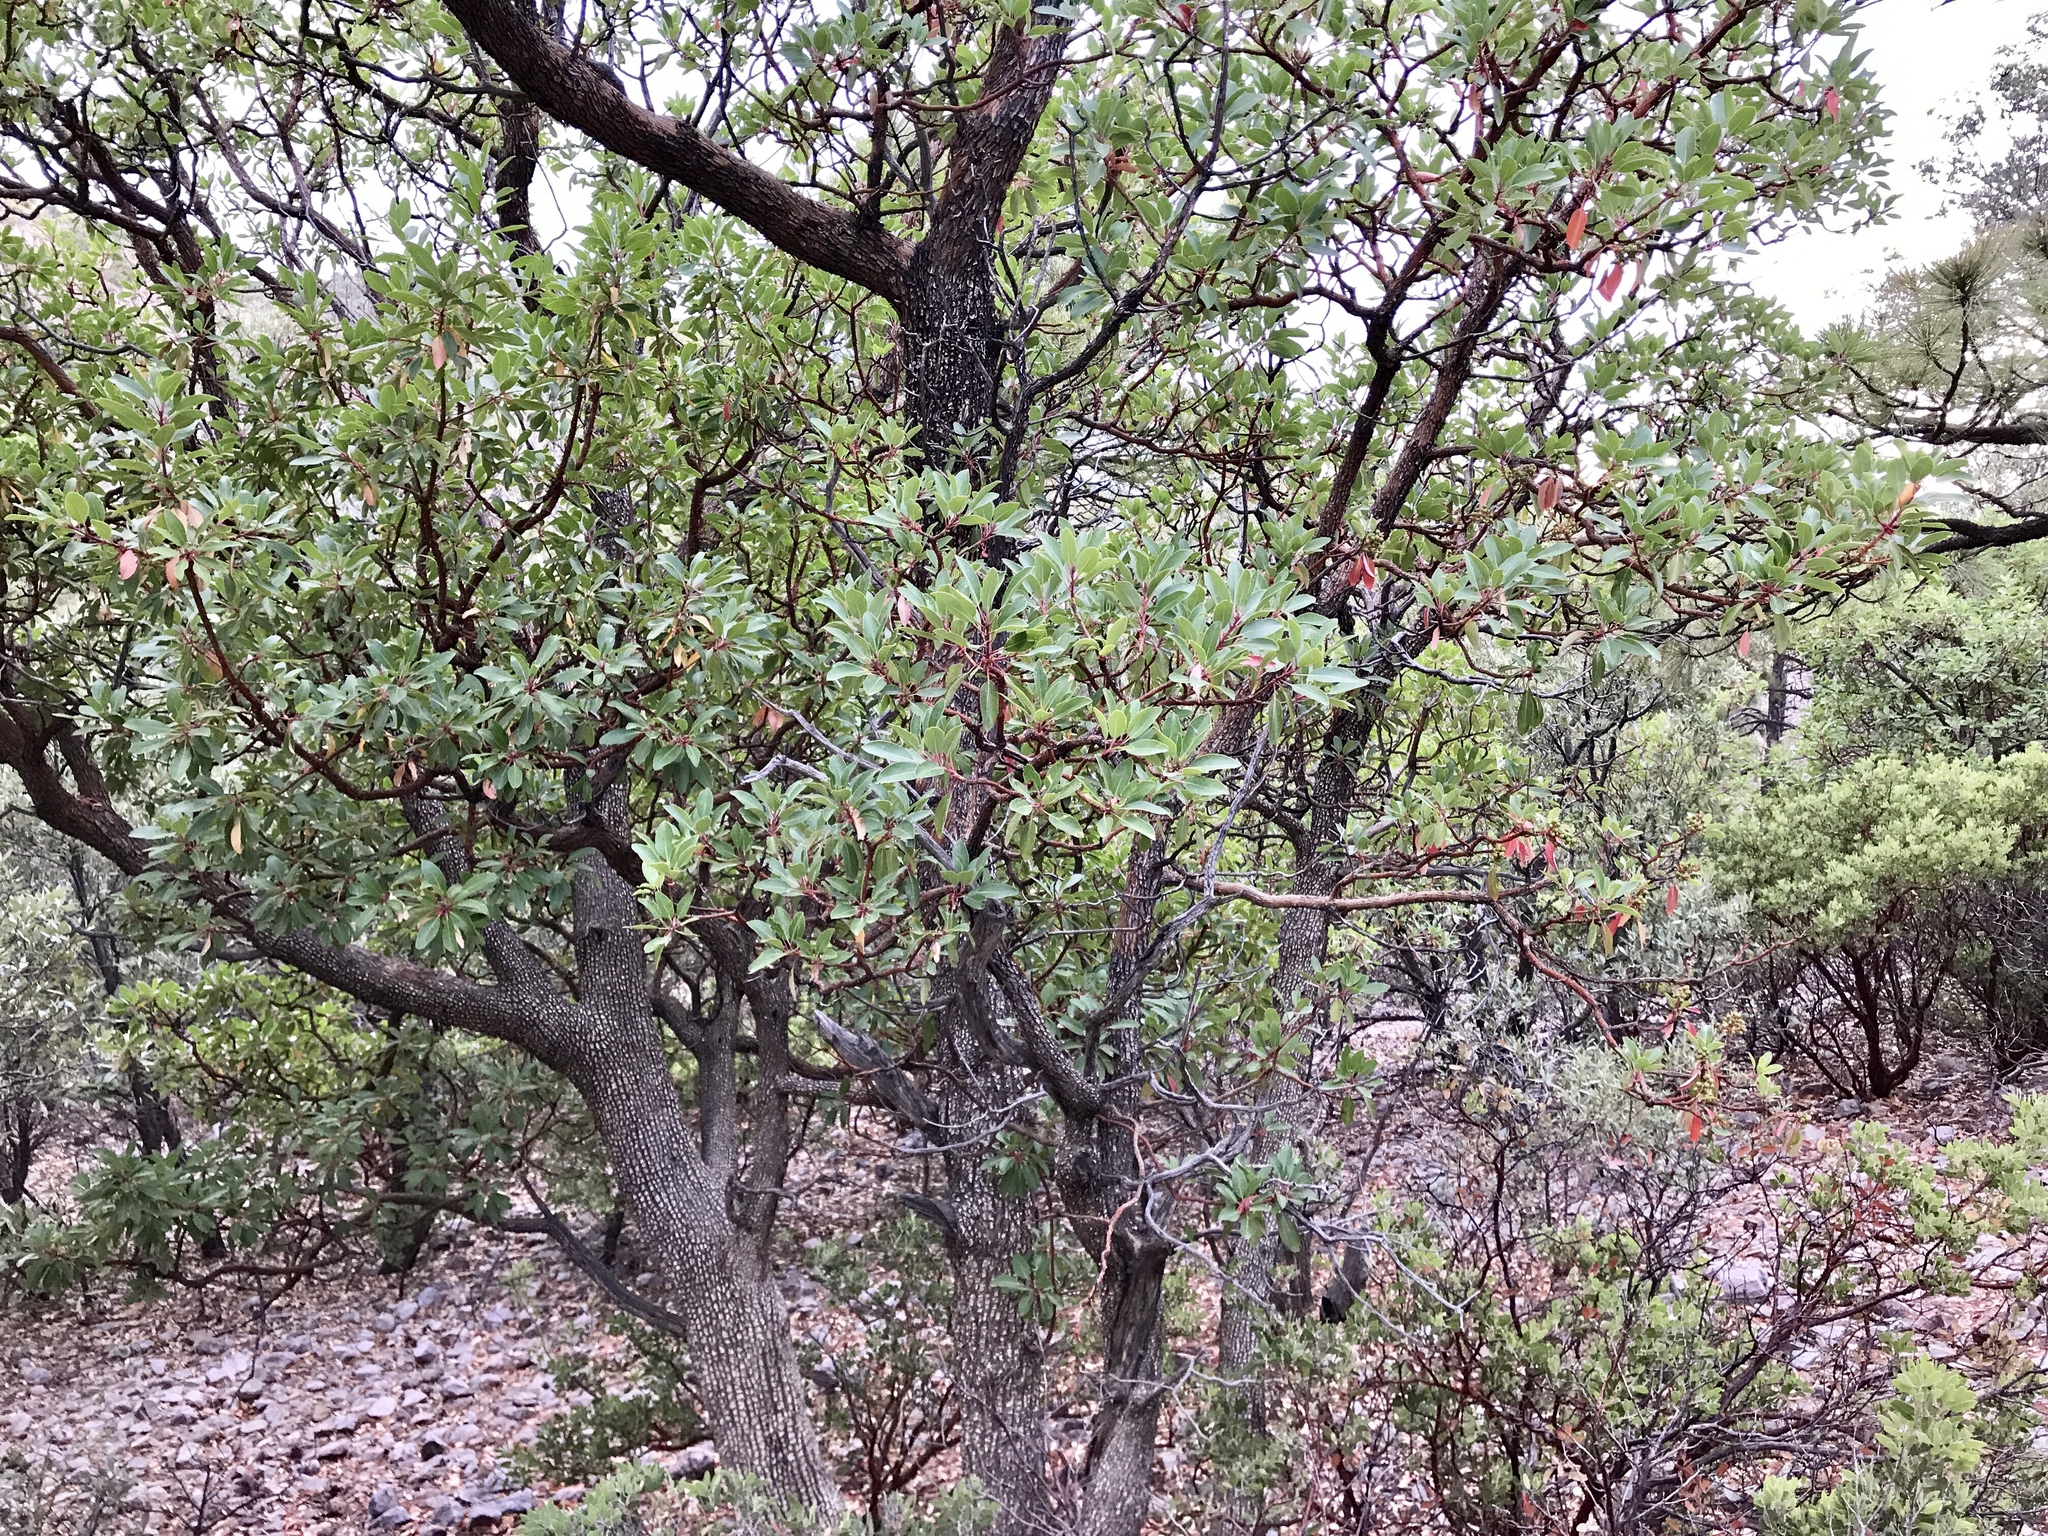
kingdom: Plantae
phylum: Tracheophyta
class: Magnoliopsida
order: Ericales
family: Ericaceae
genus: Arbutus
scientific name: Arbutus arizonica
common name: Arizona madrone
